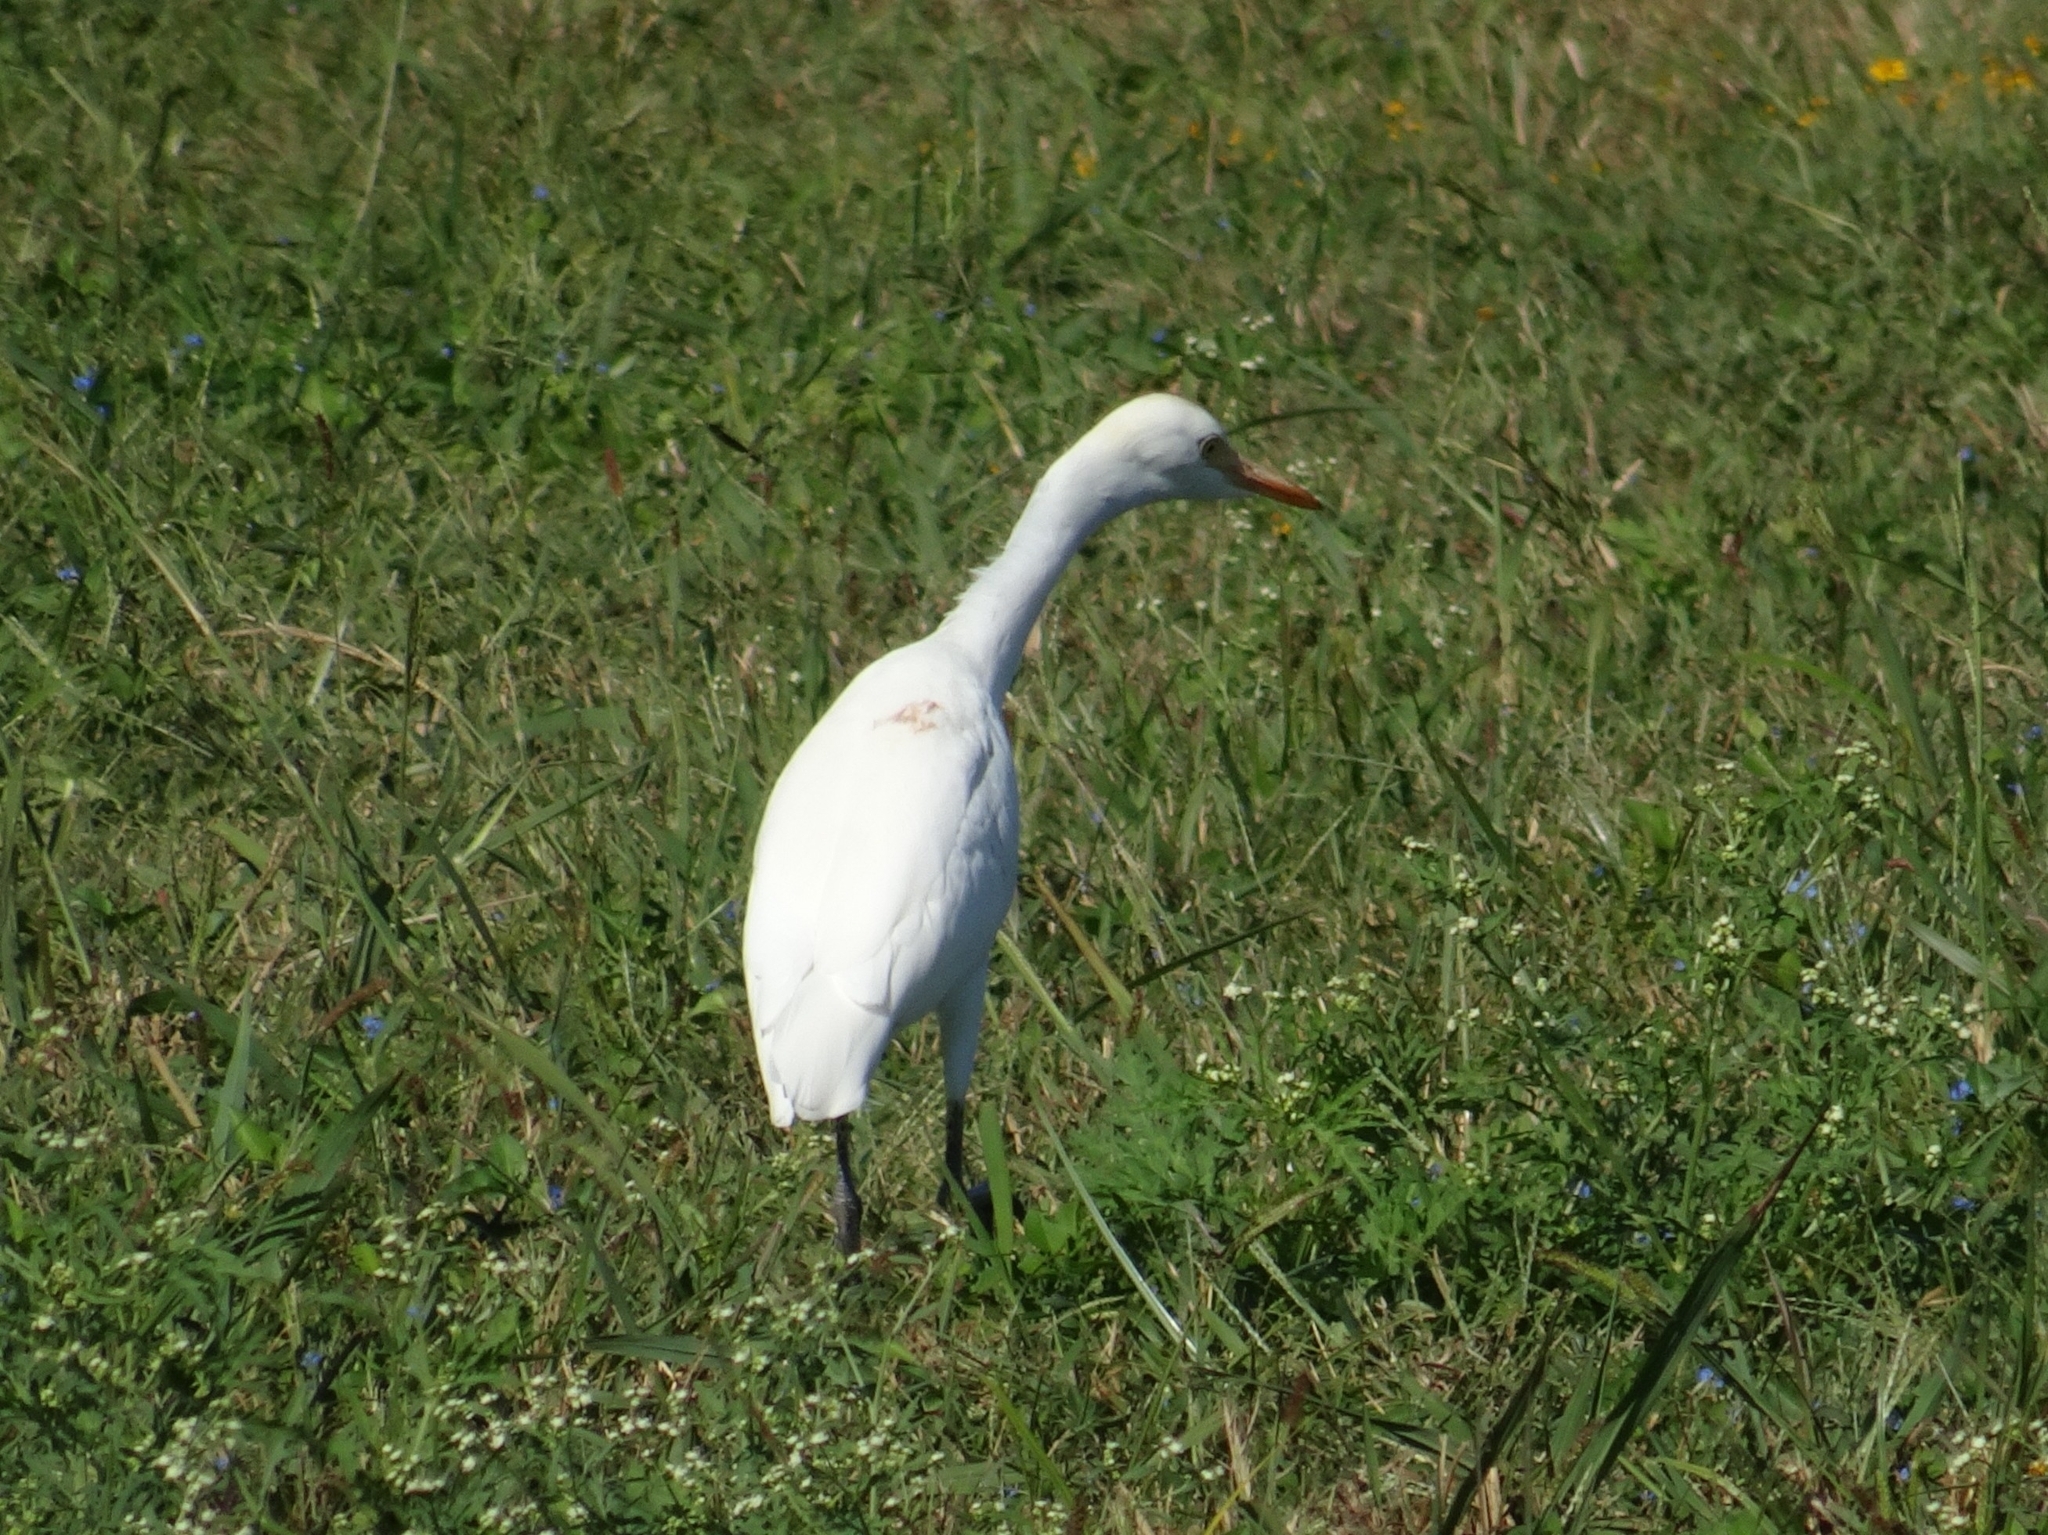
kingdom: Animalia
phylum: Chordata
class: Aves
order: Pelecaniformes
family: Ardeidae
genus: Bubulcus
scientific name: Bubulcus ibis
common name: Cattle egret
